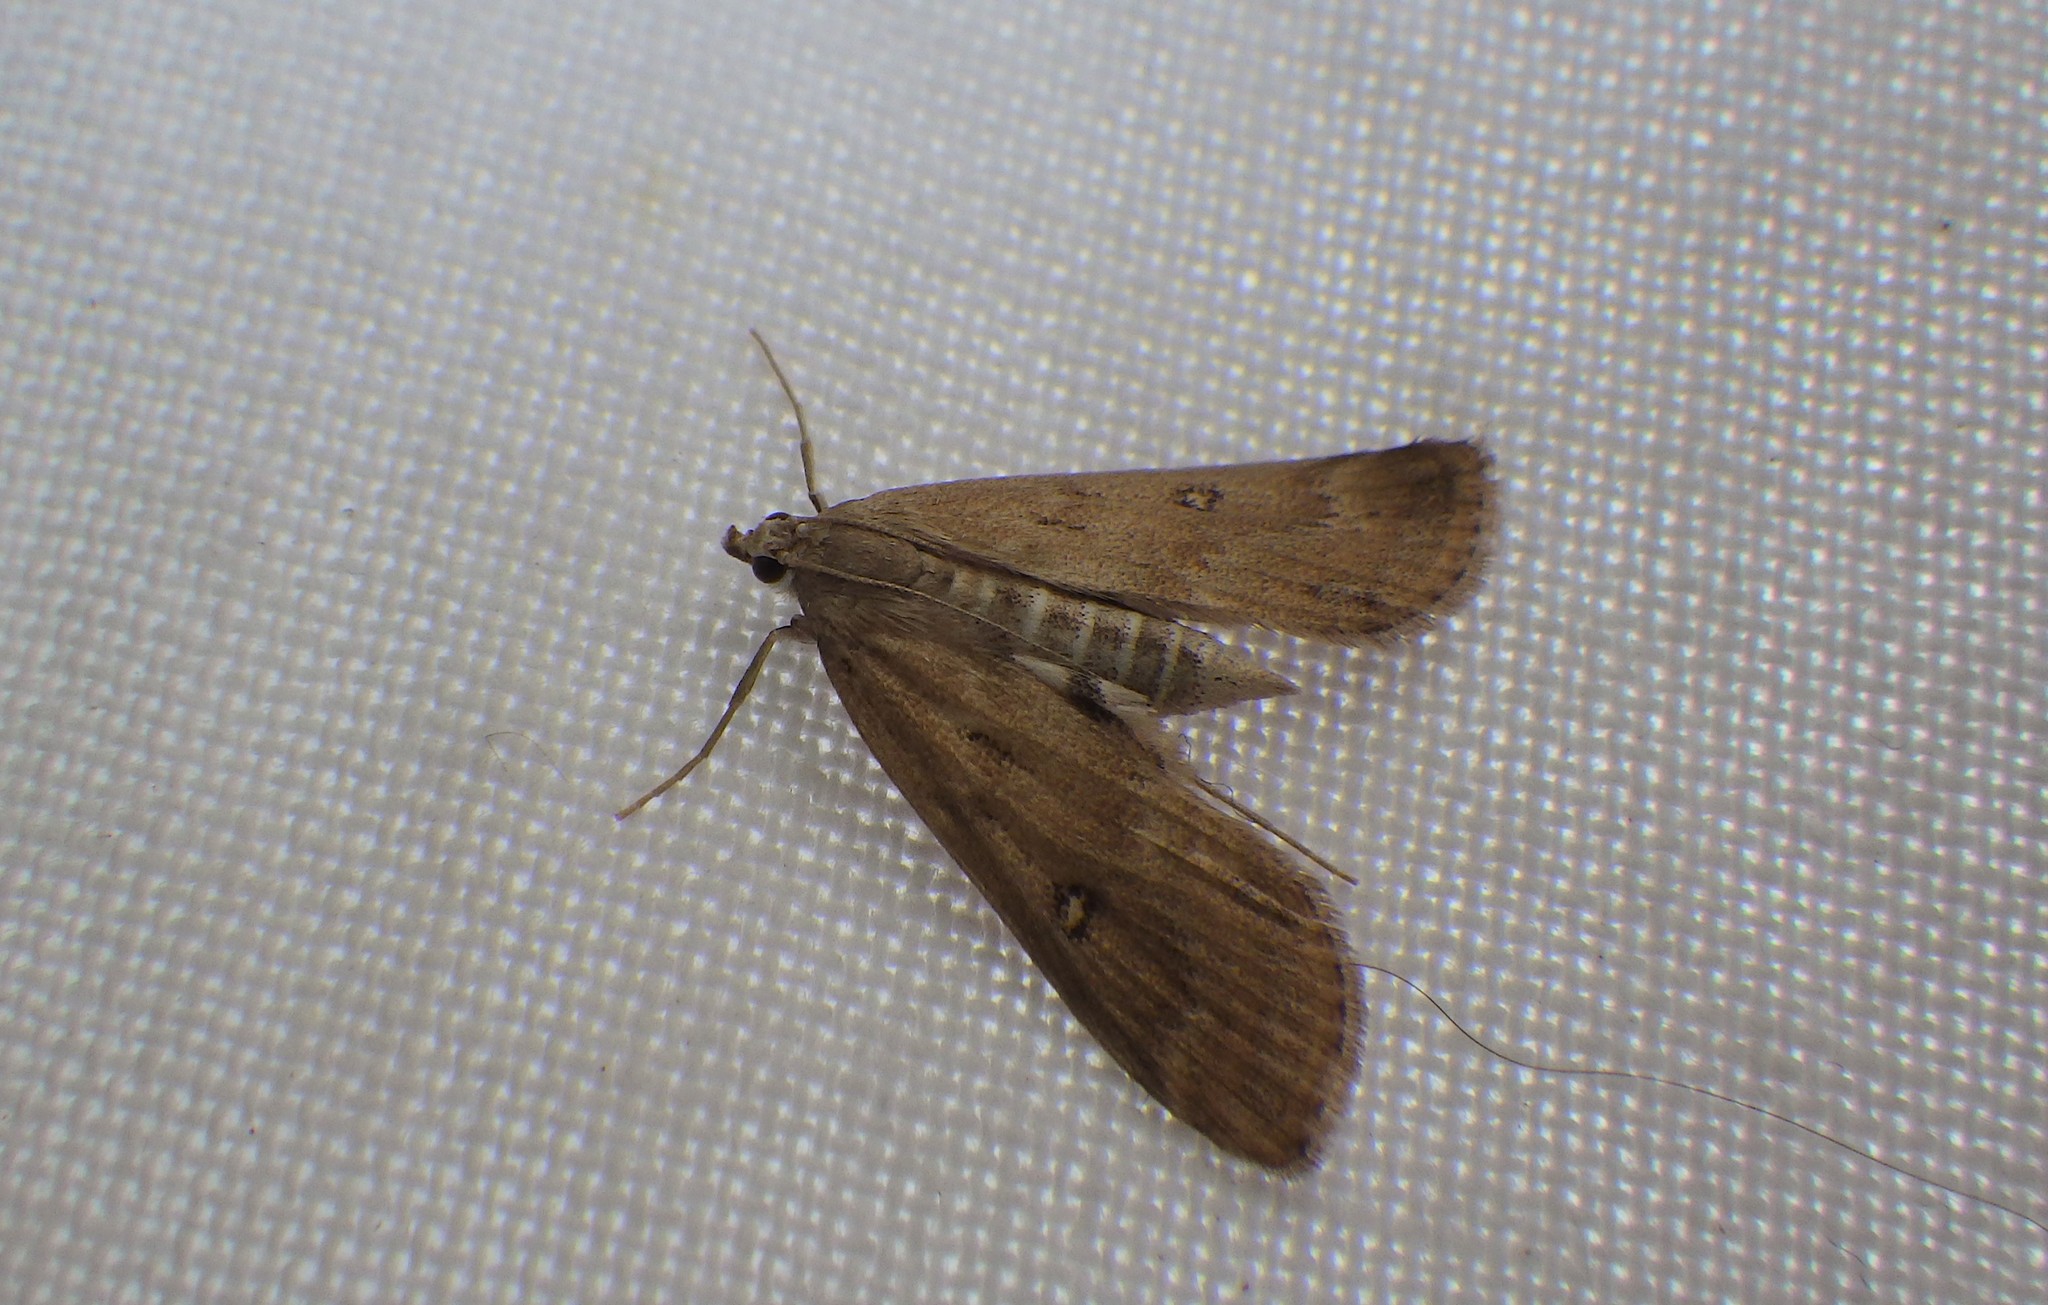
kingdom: Animalia
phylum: Arthropoda
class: Insecta
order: Lepidoptera
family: Crambidae
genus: Parapoynx
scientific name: Parapoynx stratiotata
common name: Ringed china-mark
